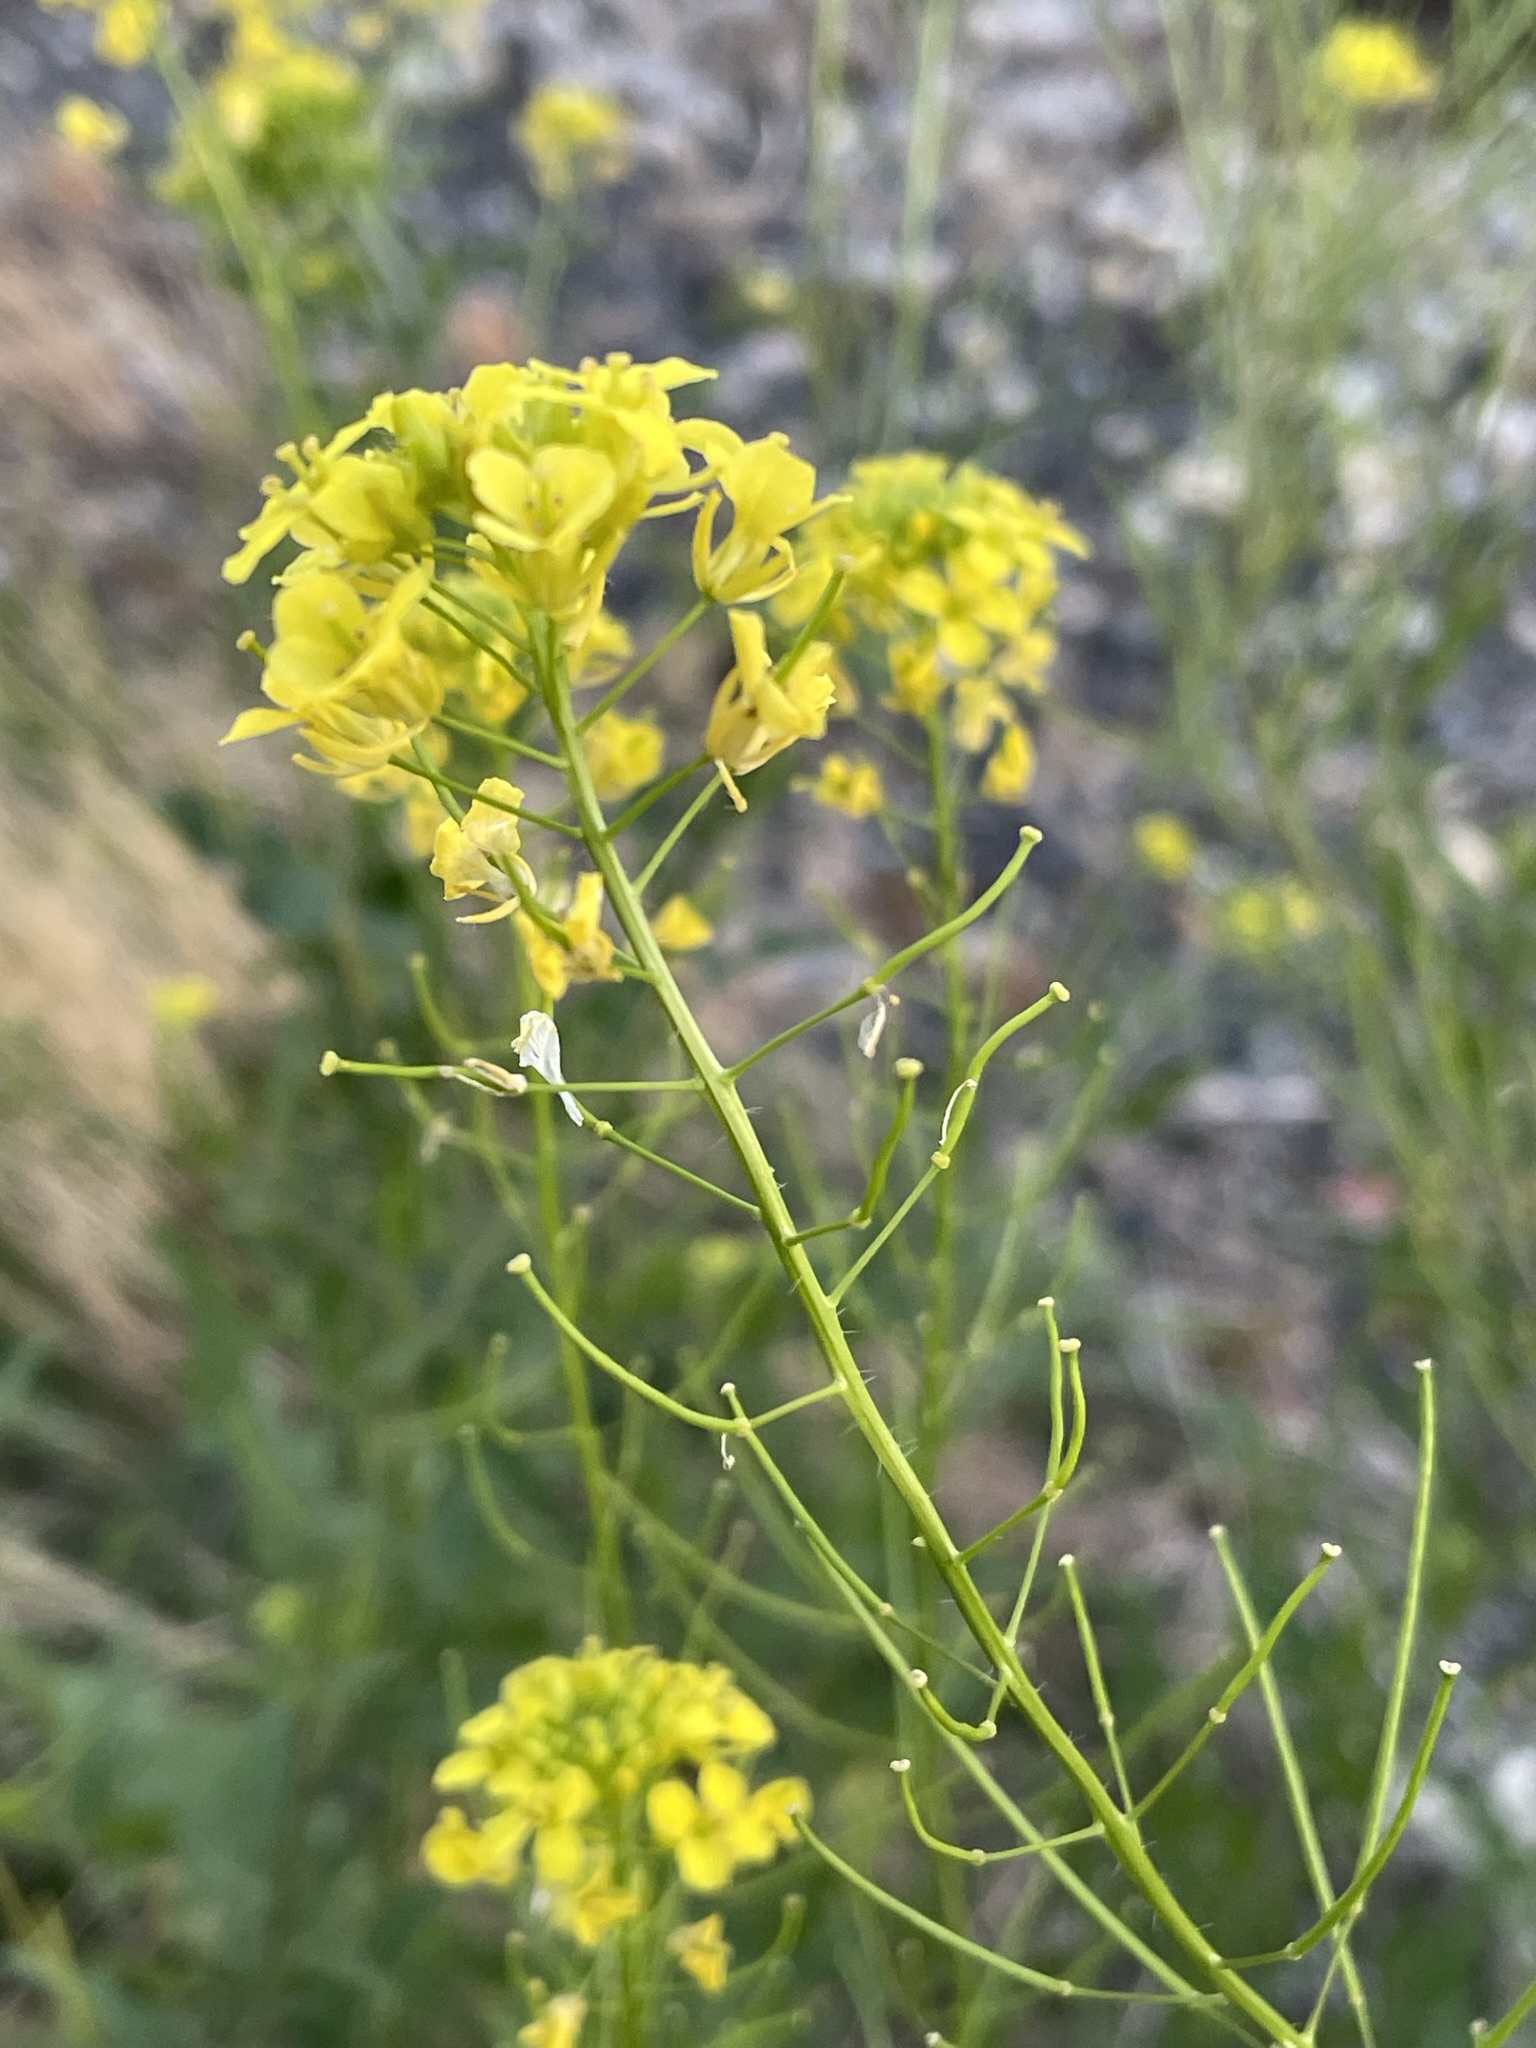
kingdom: Plantae
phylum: Tracheophyta
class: Magnoliopsida
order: Brassicales
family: Brassicaceae
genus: Sisymbrium
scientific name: Sisymbrium loeselii
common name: False london-rocket
